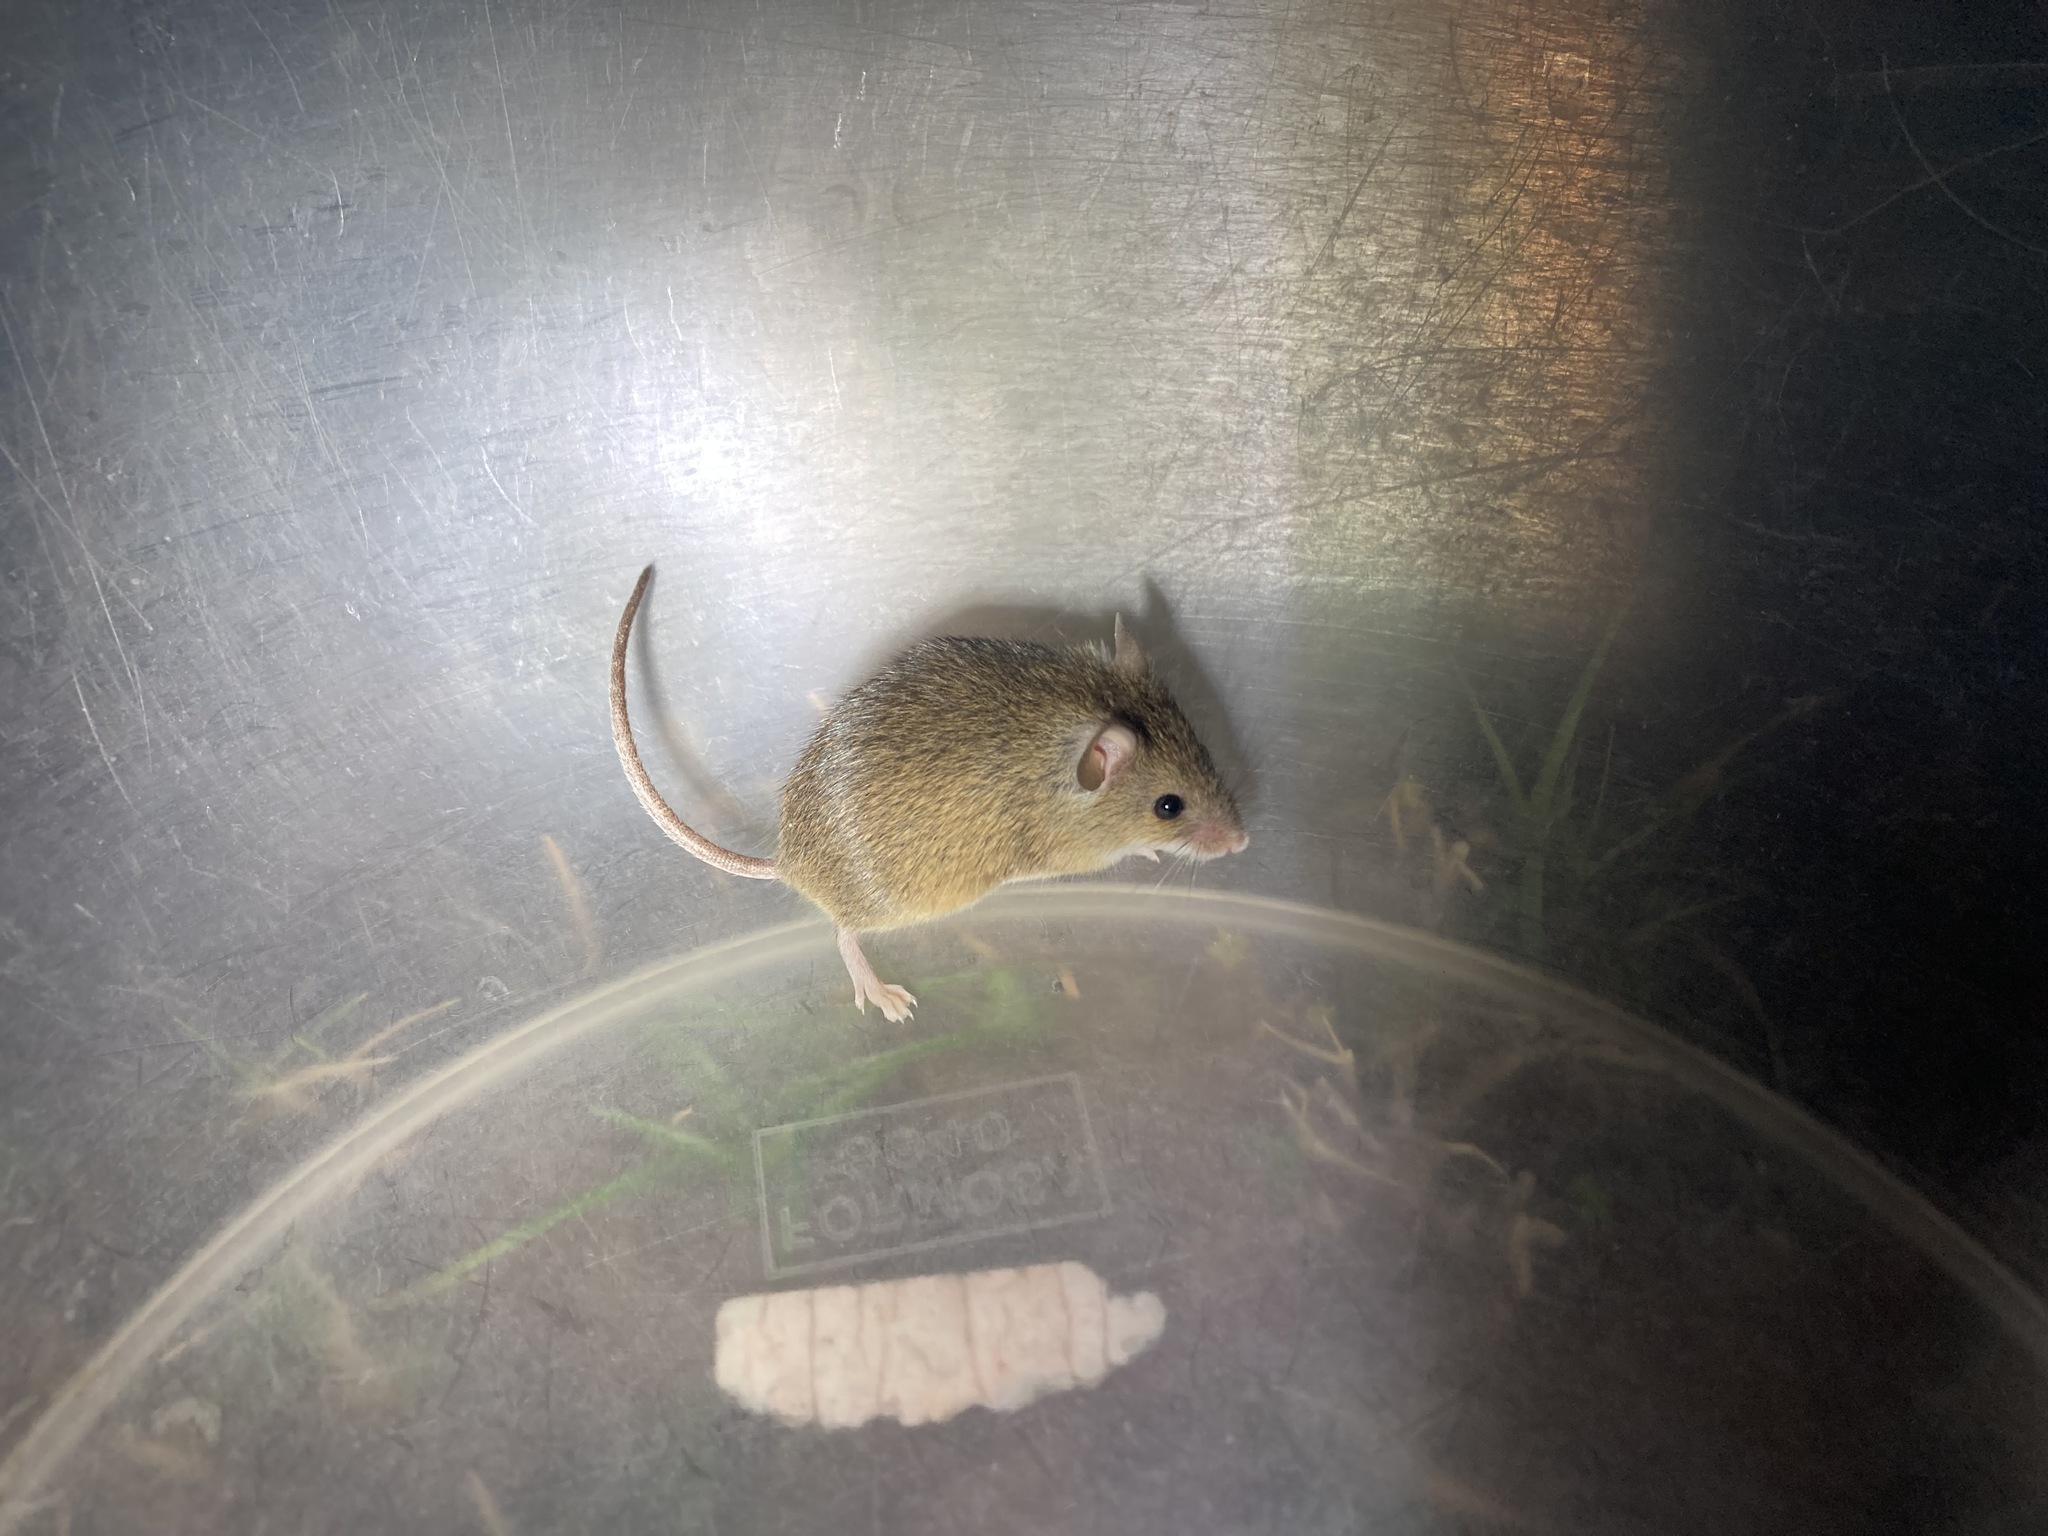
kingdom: Animalia
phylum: Chordata
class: Mammalia
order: Rodentia
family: Muridae
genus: Mus
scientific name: Mus musculus
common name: House mouse
